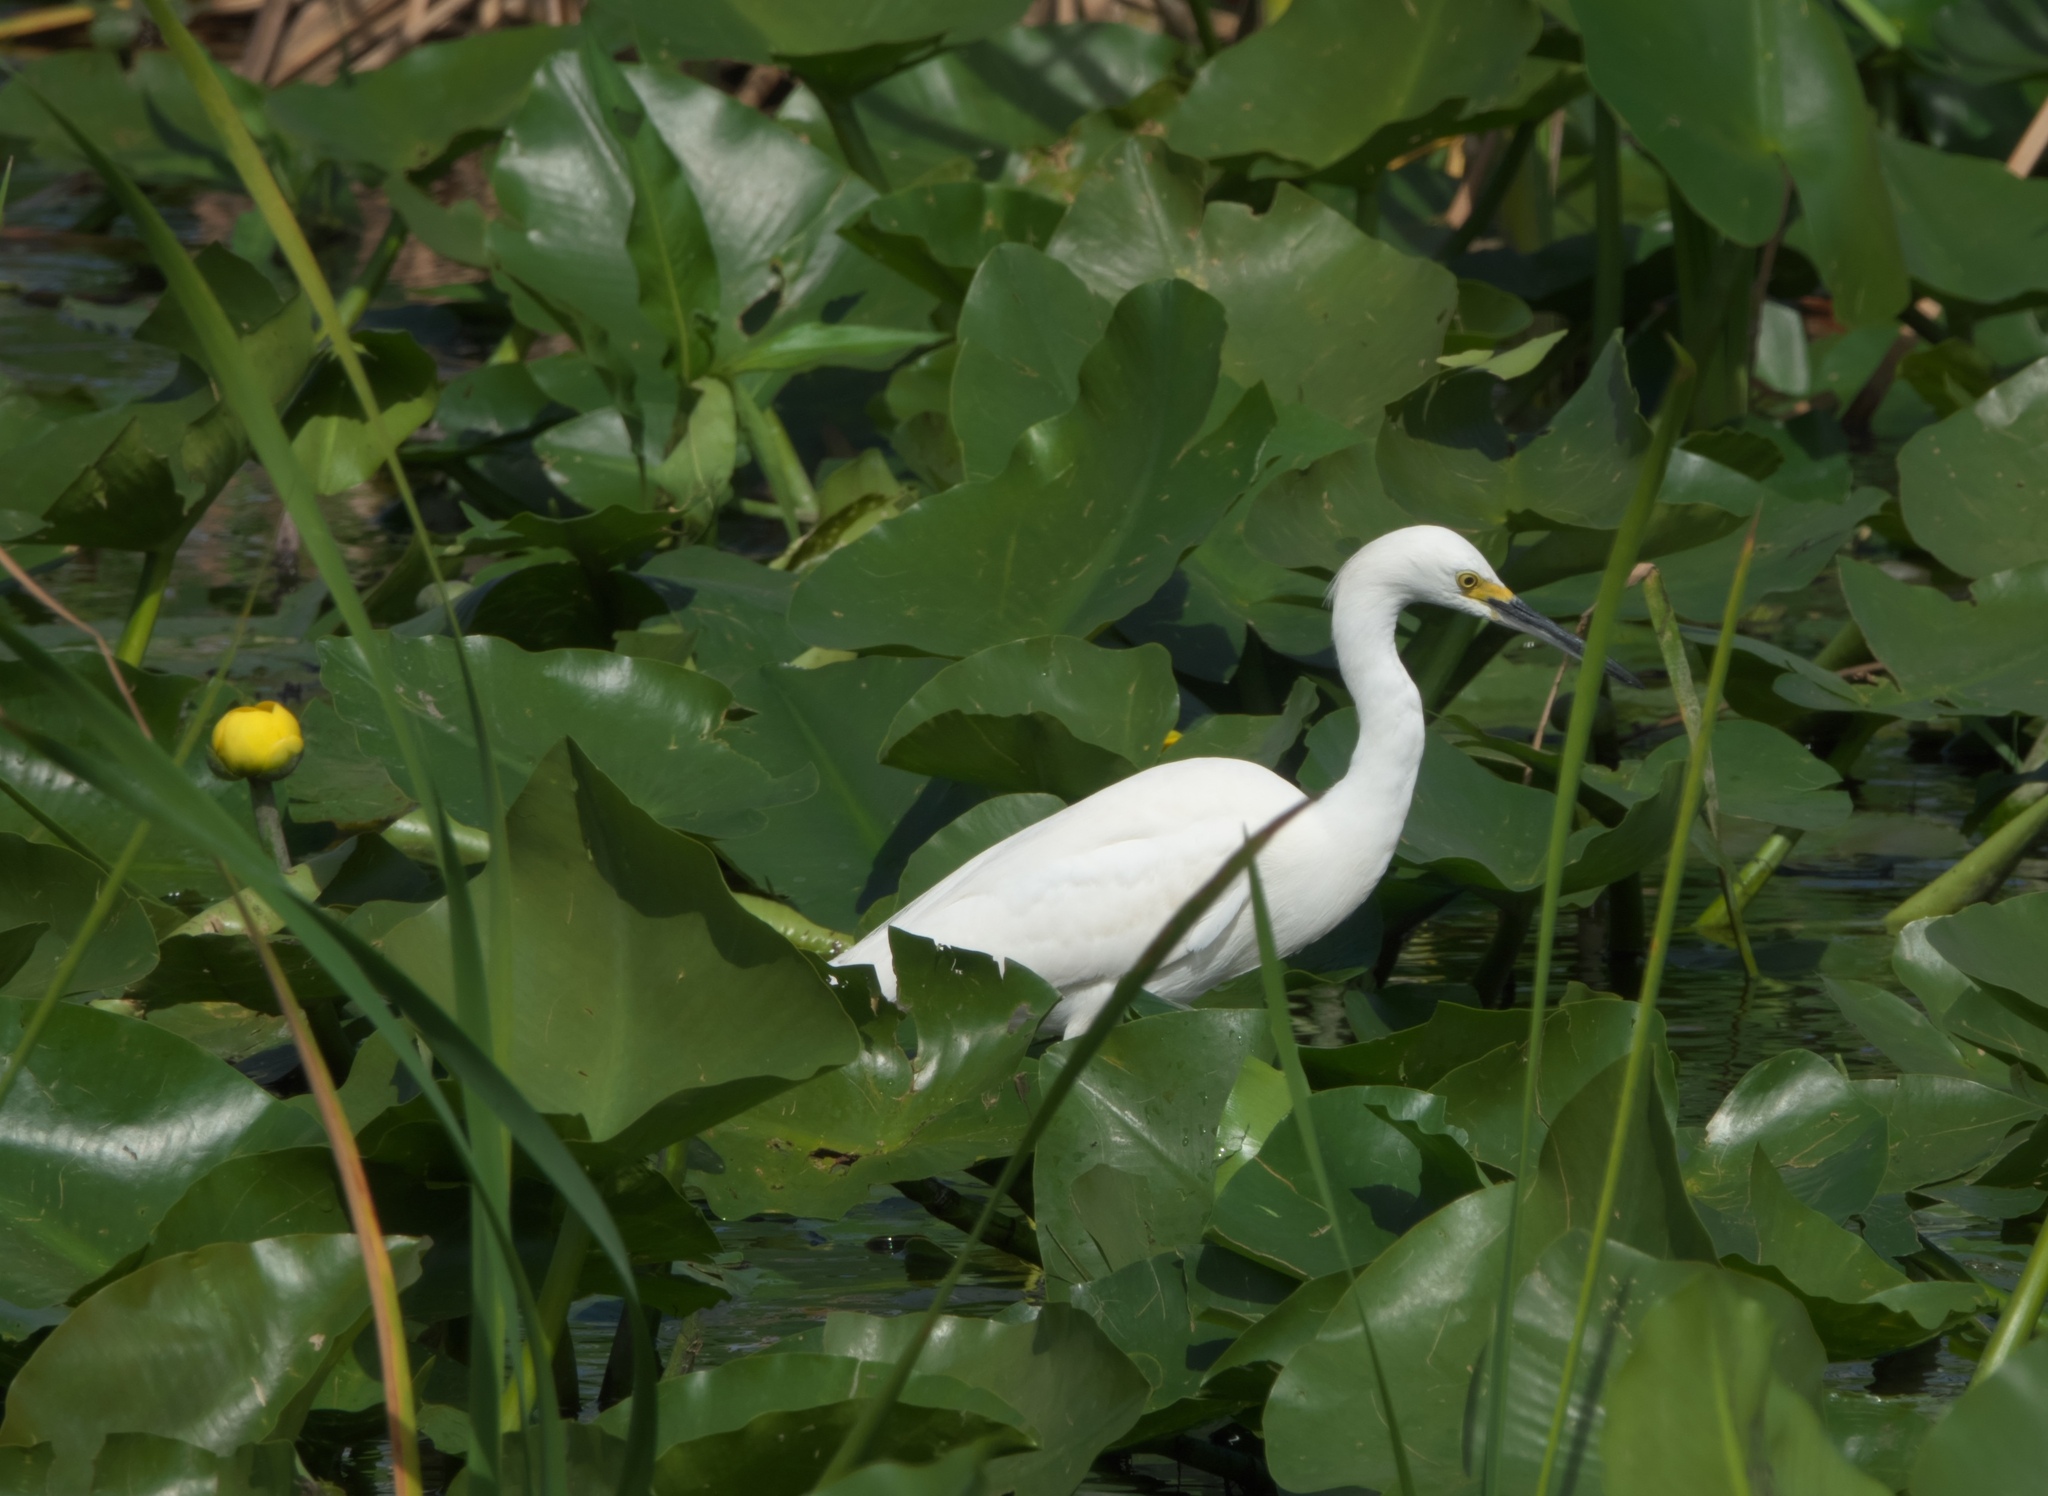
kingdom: Animalia
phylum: Chordata
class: Aves
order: Pelecaniformes
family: Ardeidae
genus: Egretta
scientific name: Egretta thula
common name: Snowy egret
